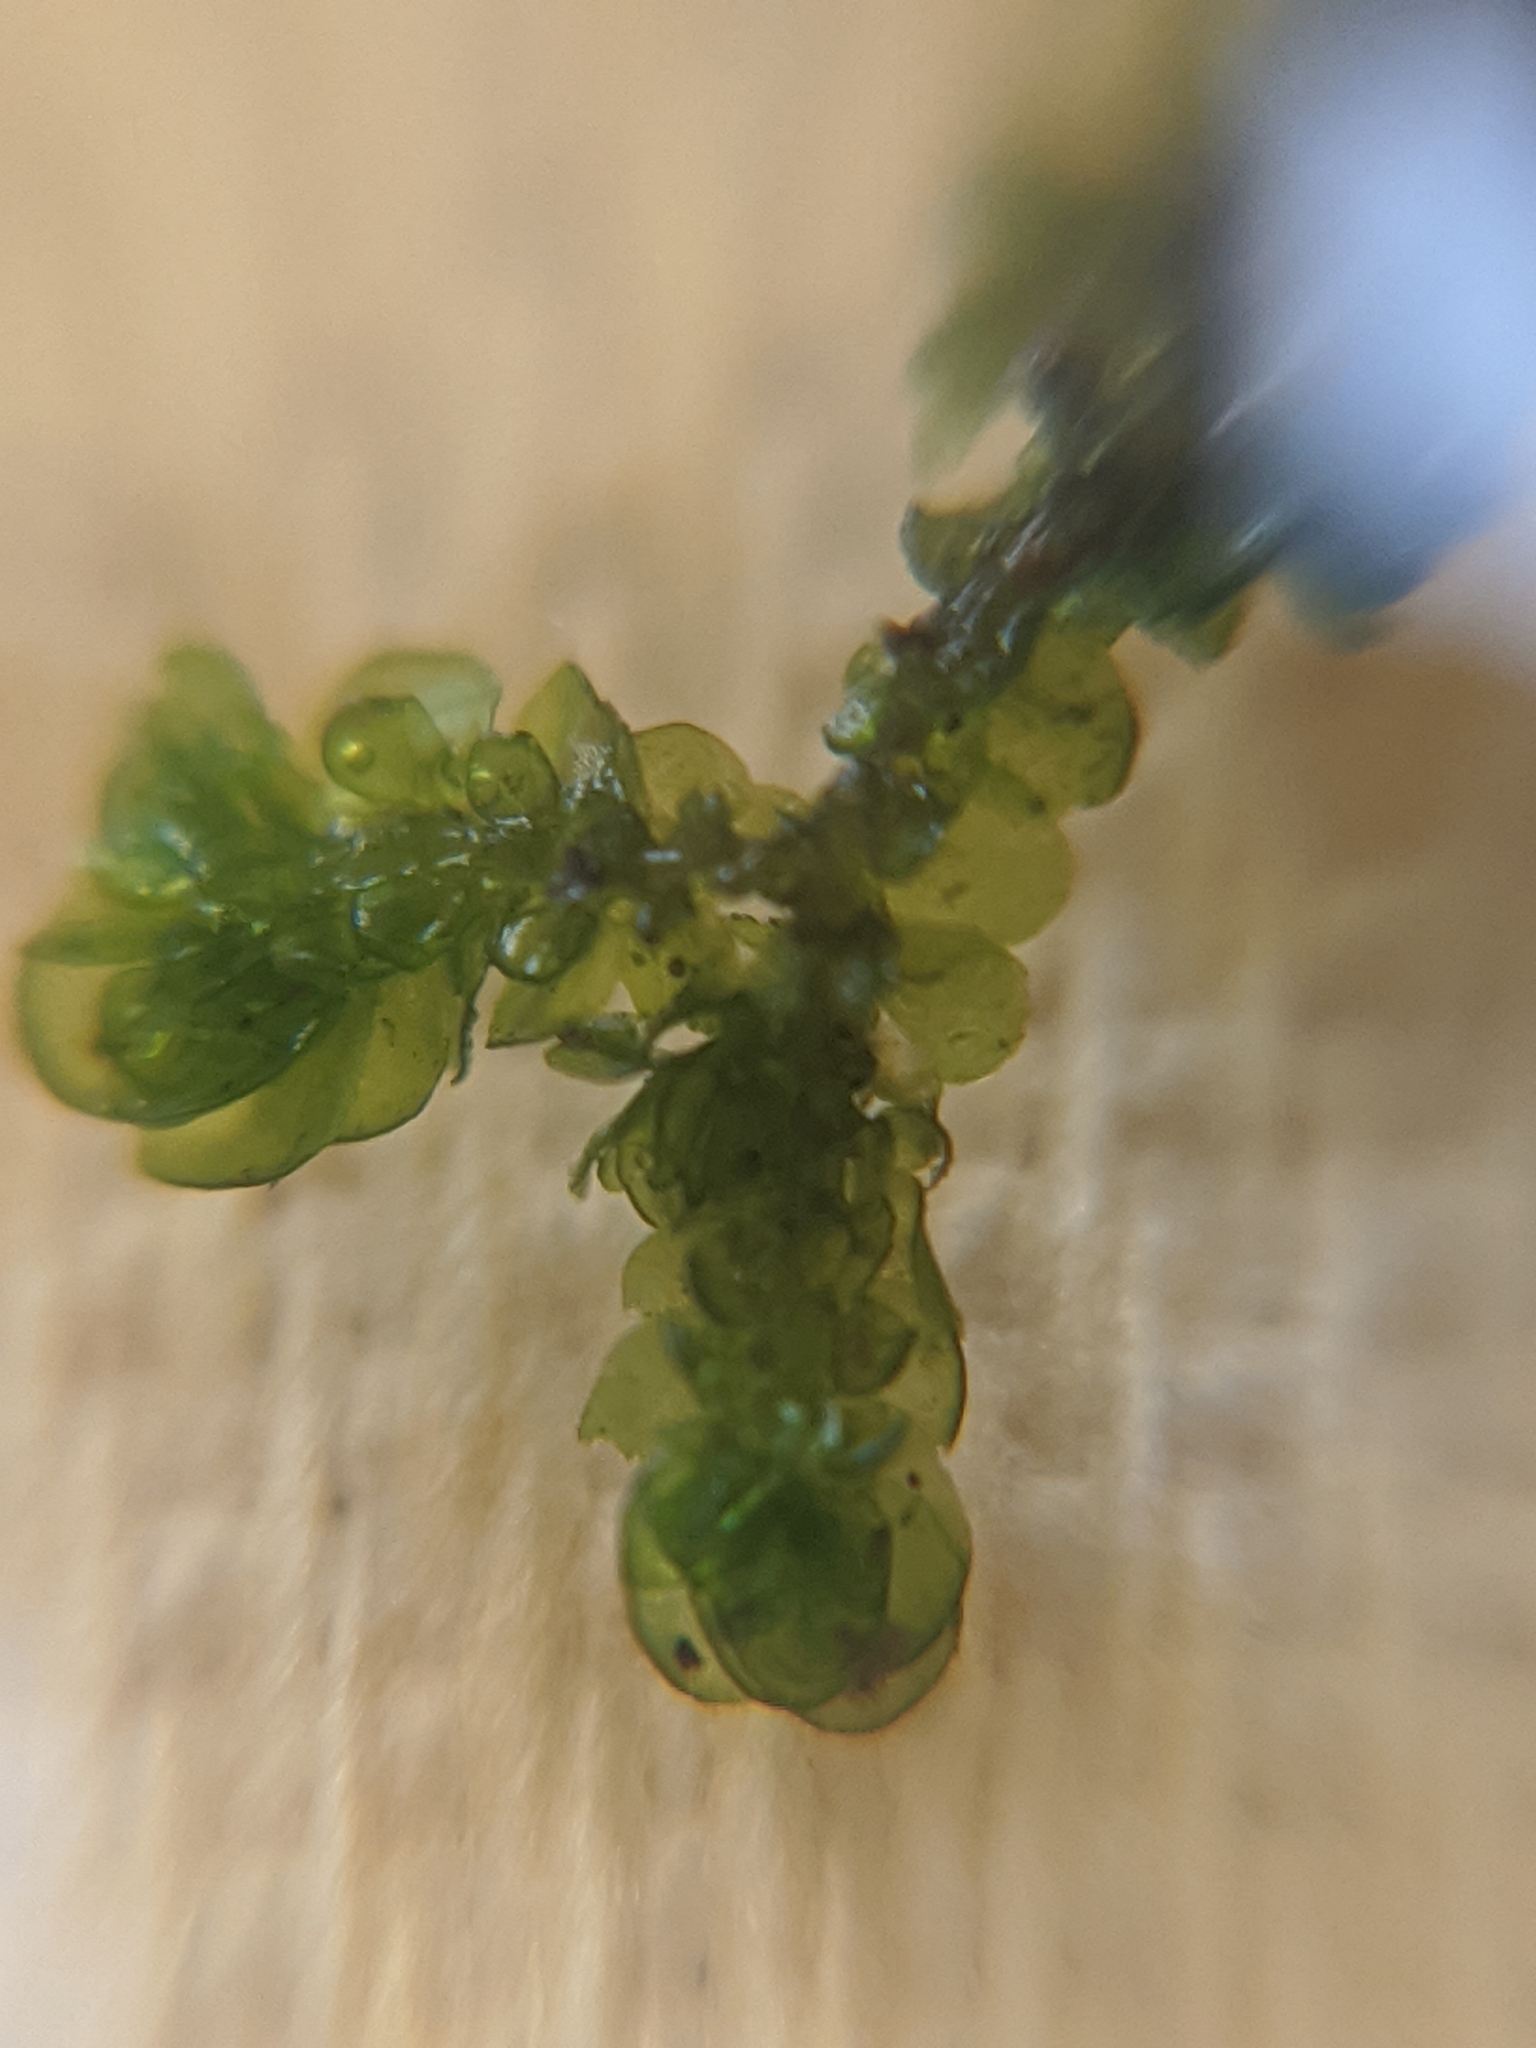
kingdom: Plantae
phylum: Marchantiophyta
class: Jungermanniopsida
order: Porellales
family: Frullaniaceae
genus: Frullania
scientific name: Frullania dilatata
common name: Dilated scalewort
